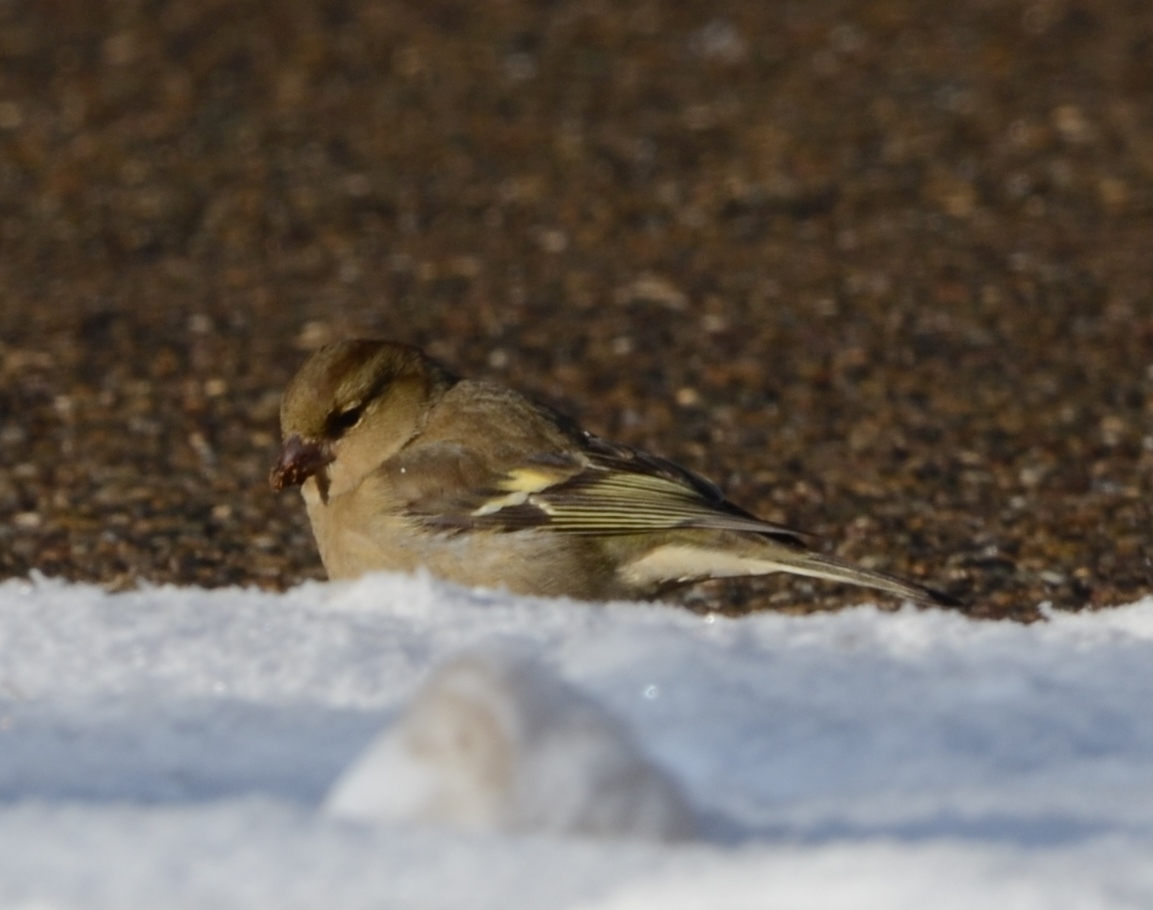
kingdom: Animalia
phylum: Chordata
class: Aves
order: Passeriformes
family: Fringillidae
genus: Fringilla
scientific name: Fringilla coelebs
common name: Common chaffinch
